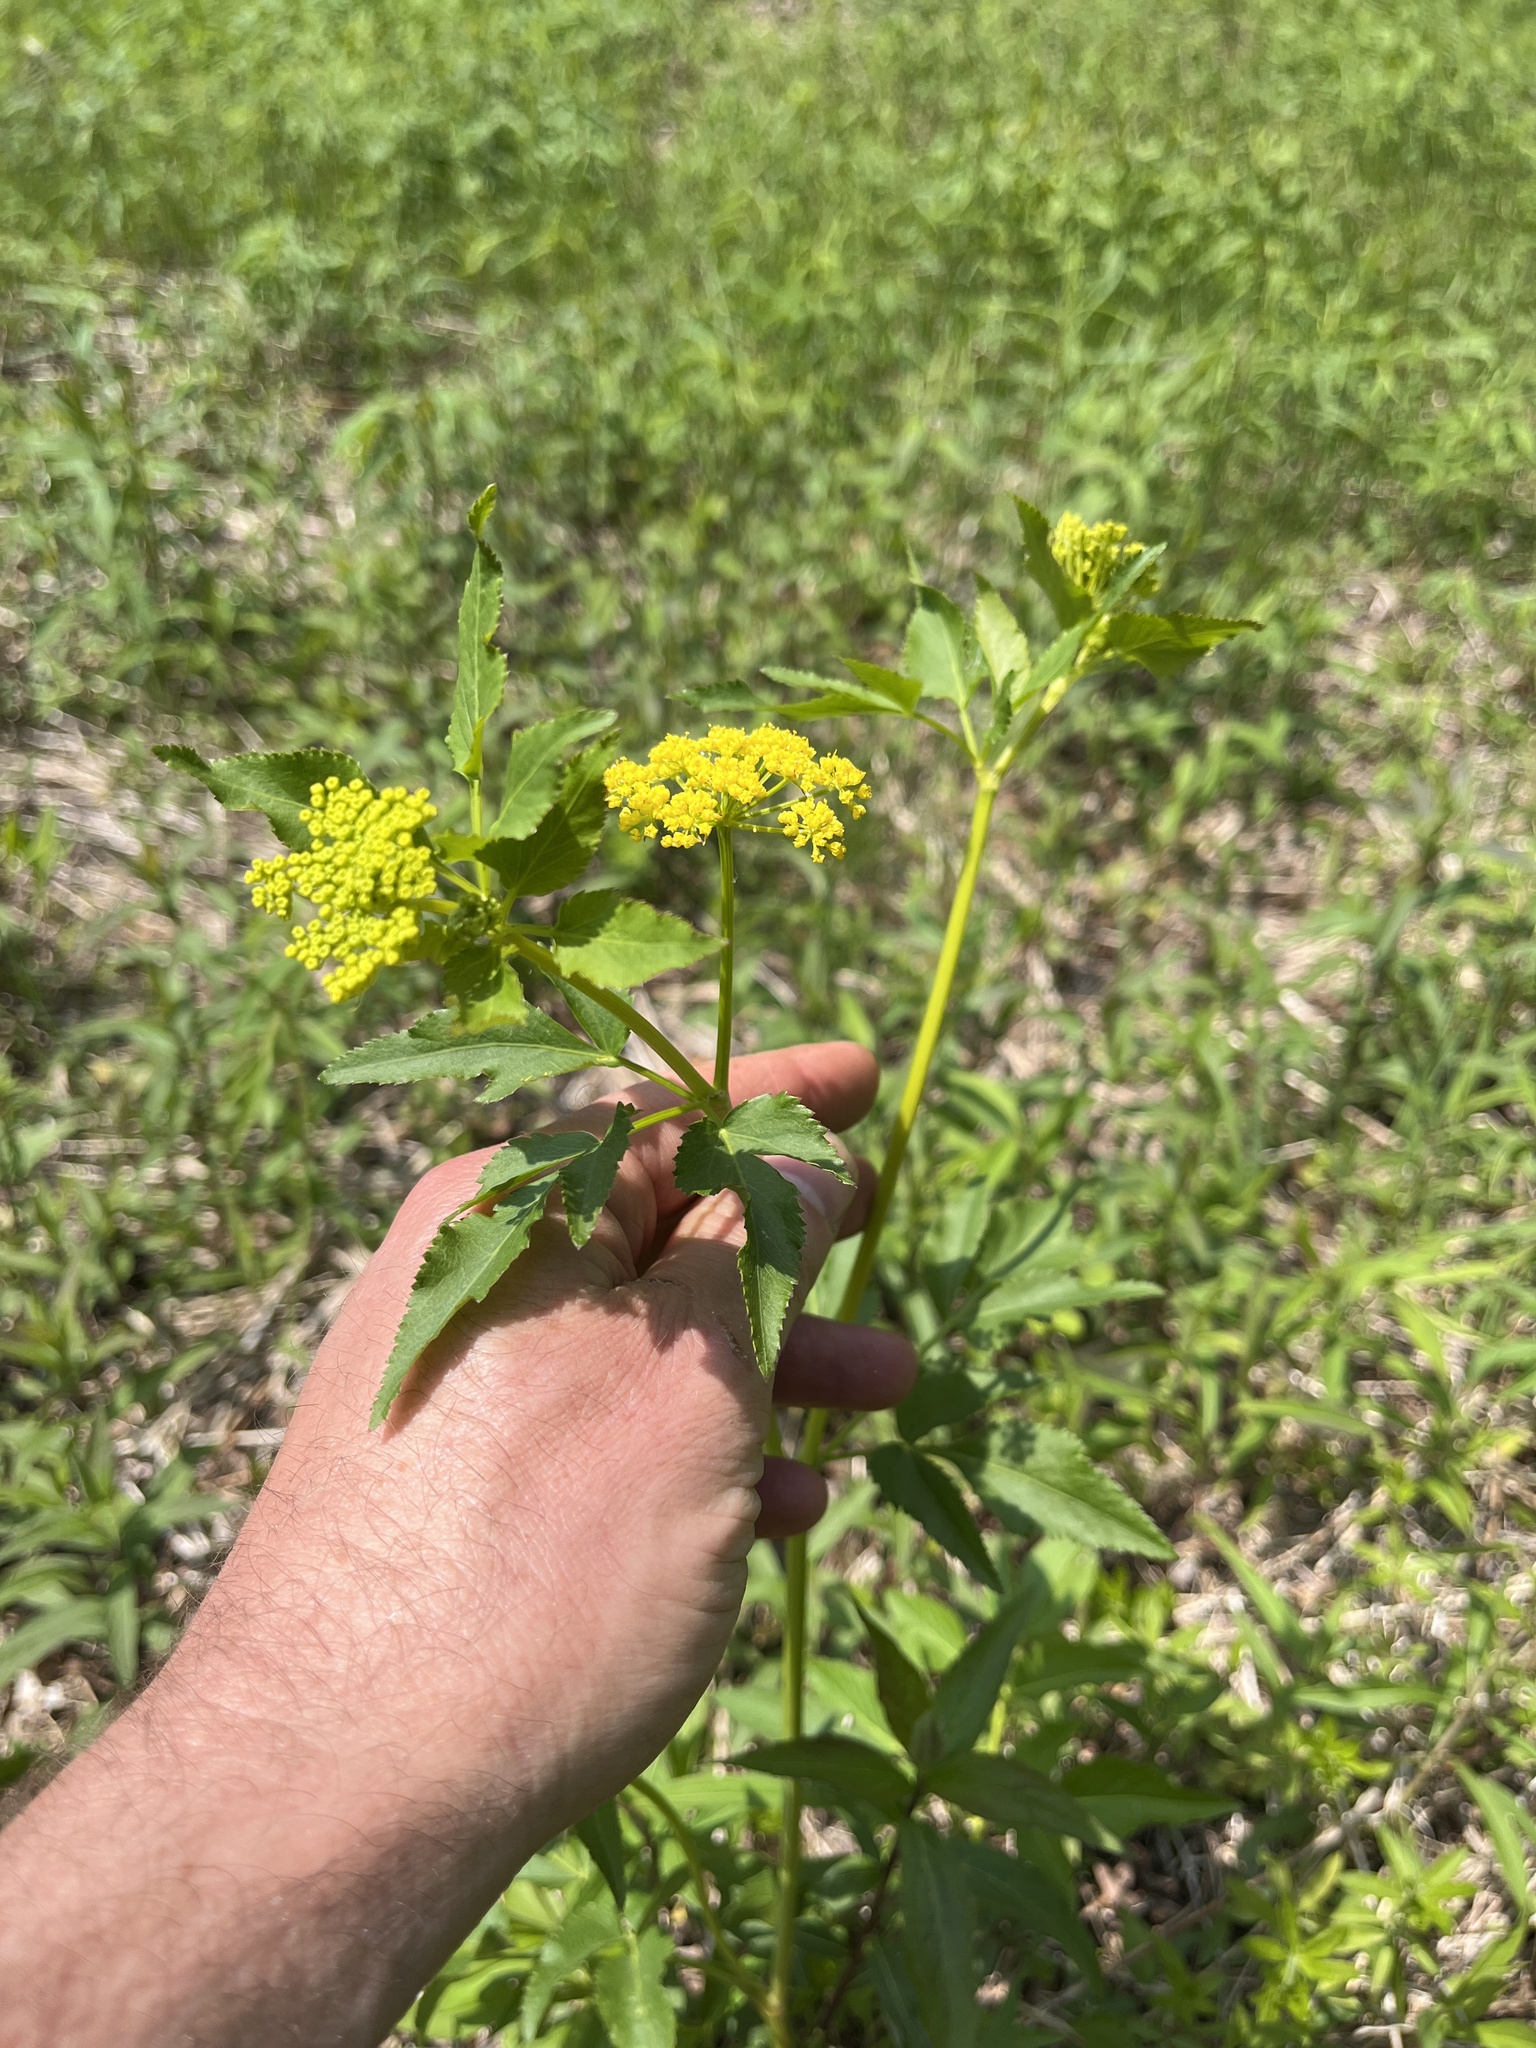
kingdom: Plantae
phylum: Tracheophyta
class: Magnoliopsida
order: Apiales
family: Apiaceae
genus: Zizia
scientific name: Zizia aurea
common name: Golden alexanders
